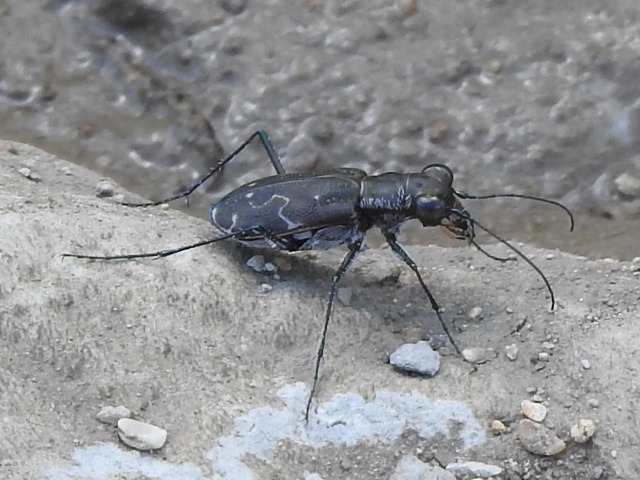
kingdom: Animalia
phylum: Arthropoda
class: Insecta
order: Coleoptera
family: Carabidae
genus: Cicindela
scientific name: Cicindela trifasciata
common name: Mudflat tiger beetle
